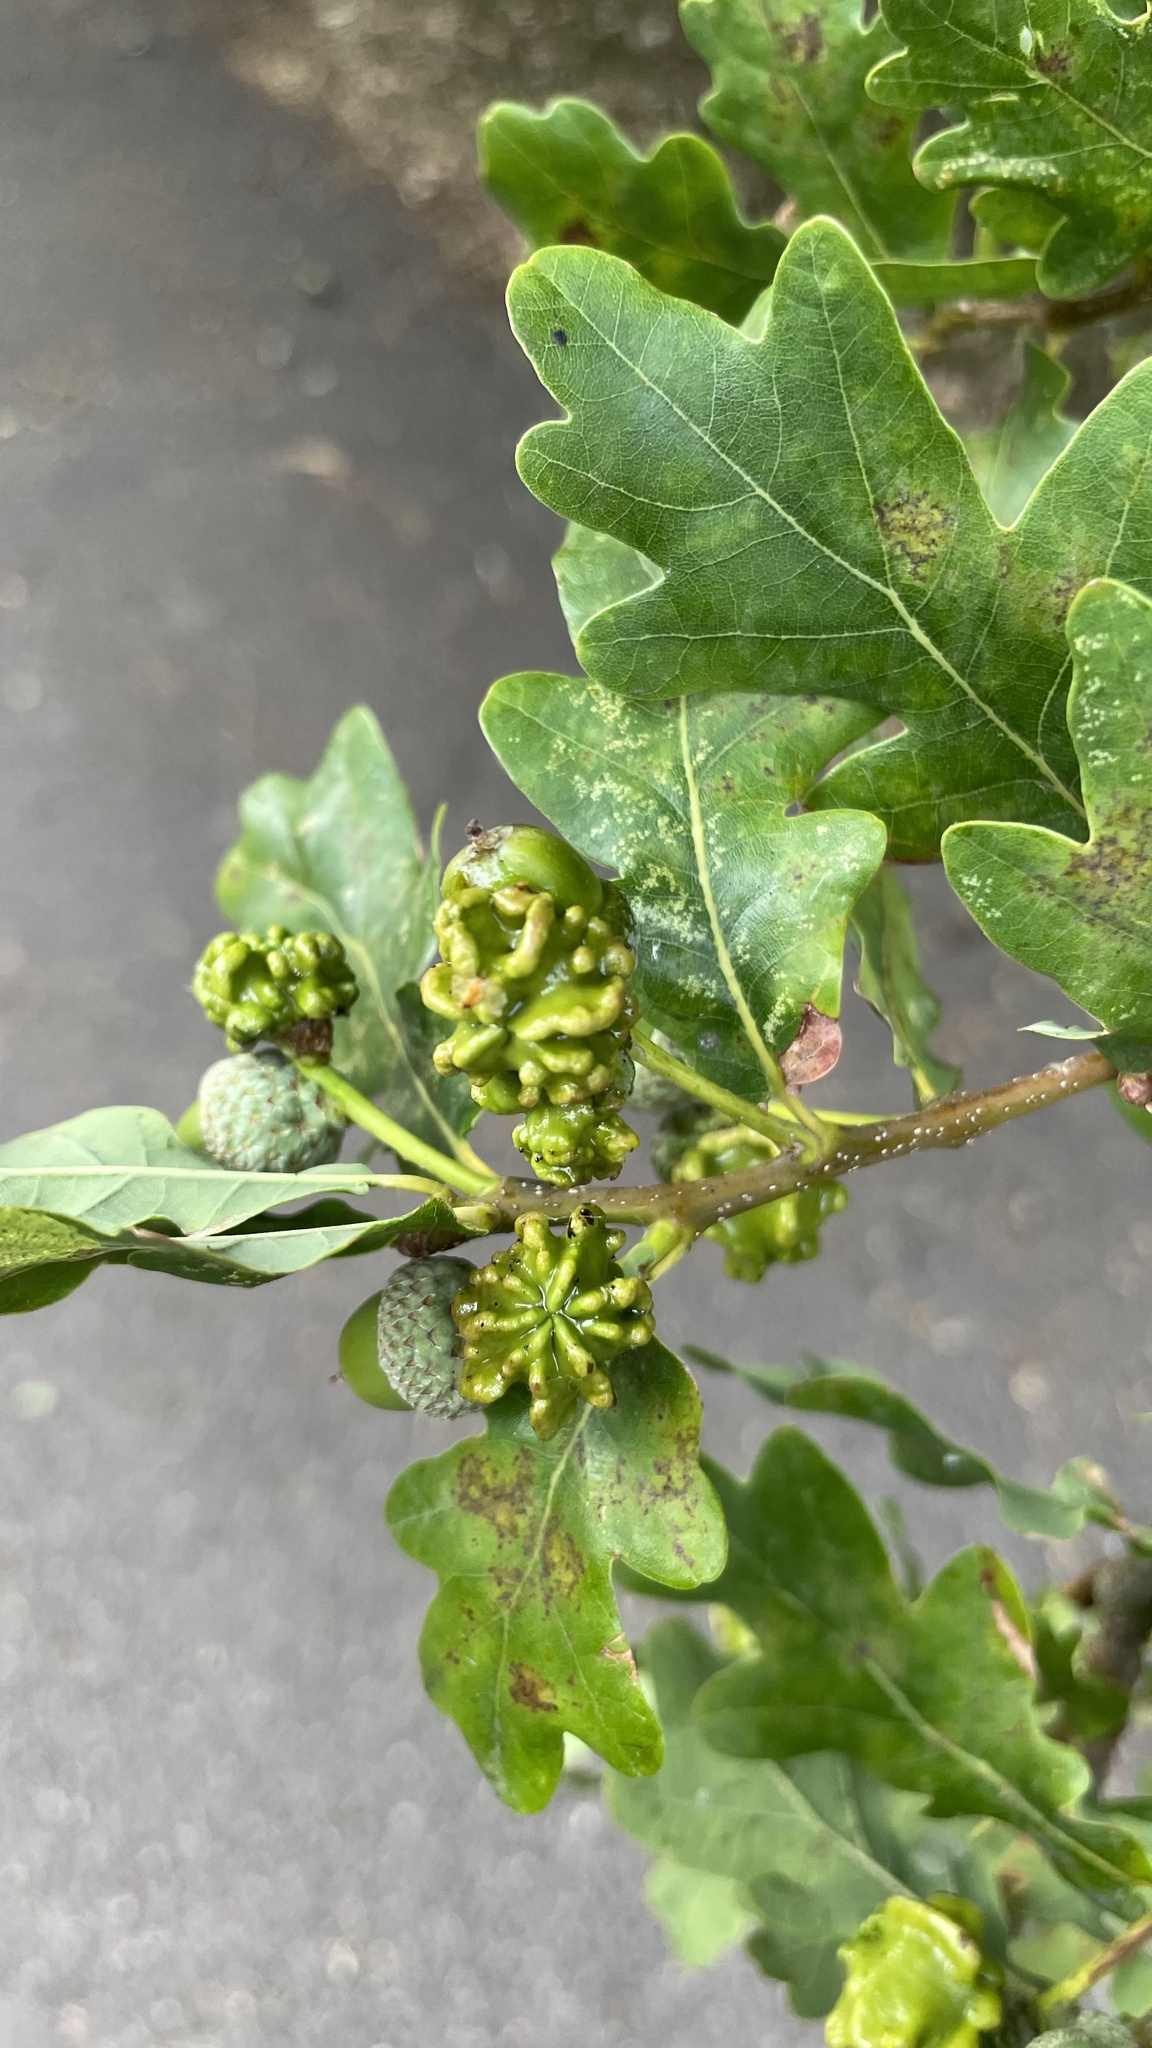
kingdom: Animalia
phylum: Arthropoda
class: Insecta
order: Hymenoptera
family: Cynipidae
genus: Andricus
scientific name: Andricus quercuscalicis
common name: Knopper gall
